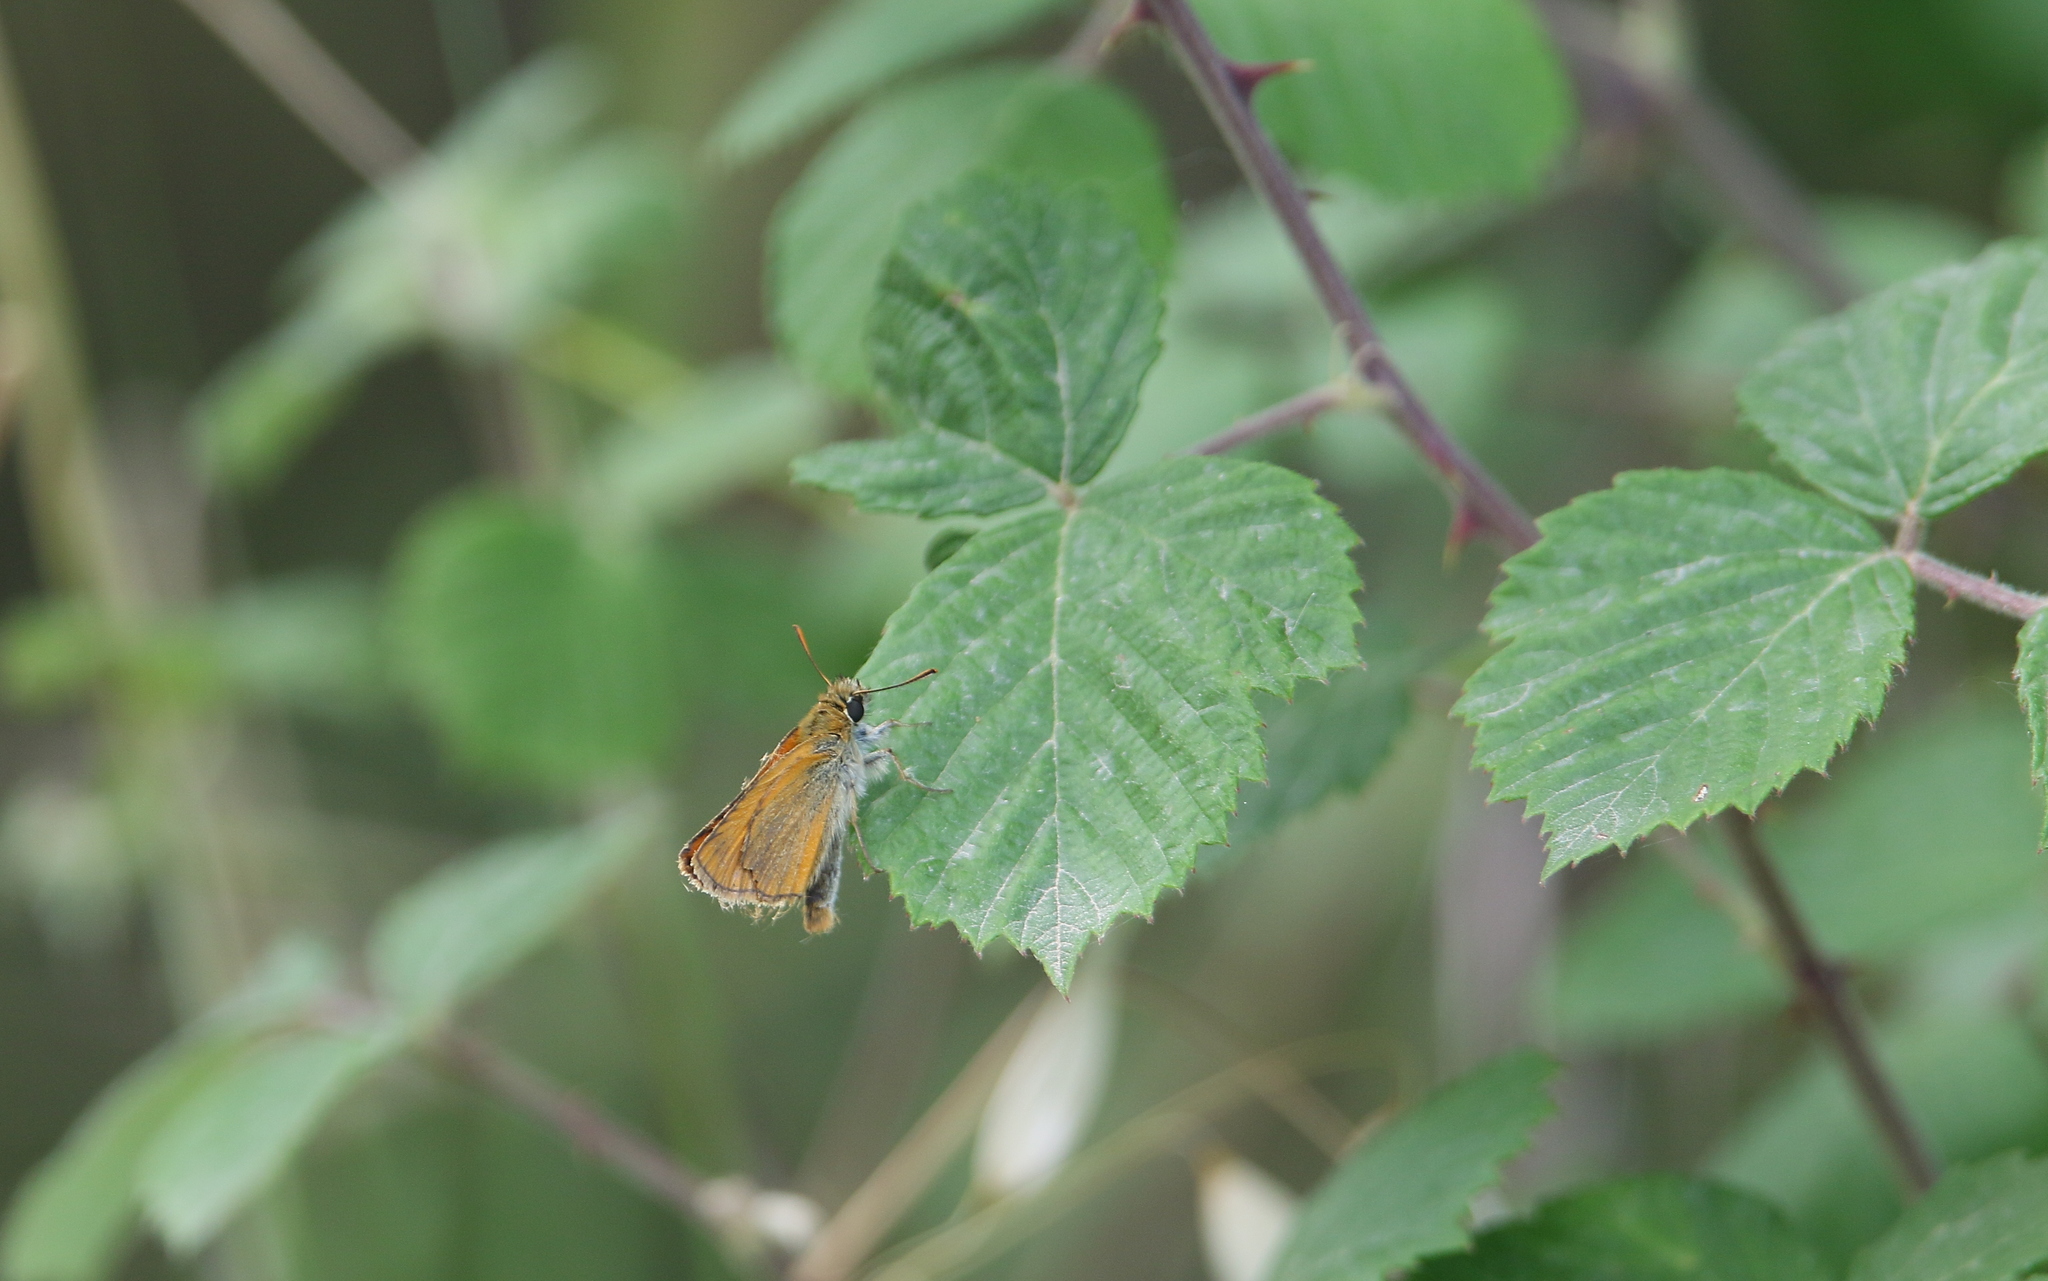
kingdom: Animalia
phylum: Arthropoda
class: Insecta
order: Lepidoptera
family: Hesperiidae
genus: Thymelicus
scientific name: Thymelicus sylvestris
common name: Small skipper
